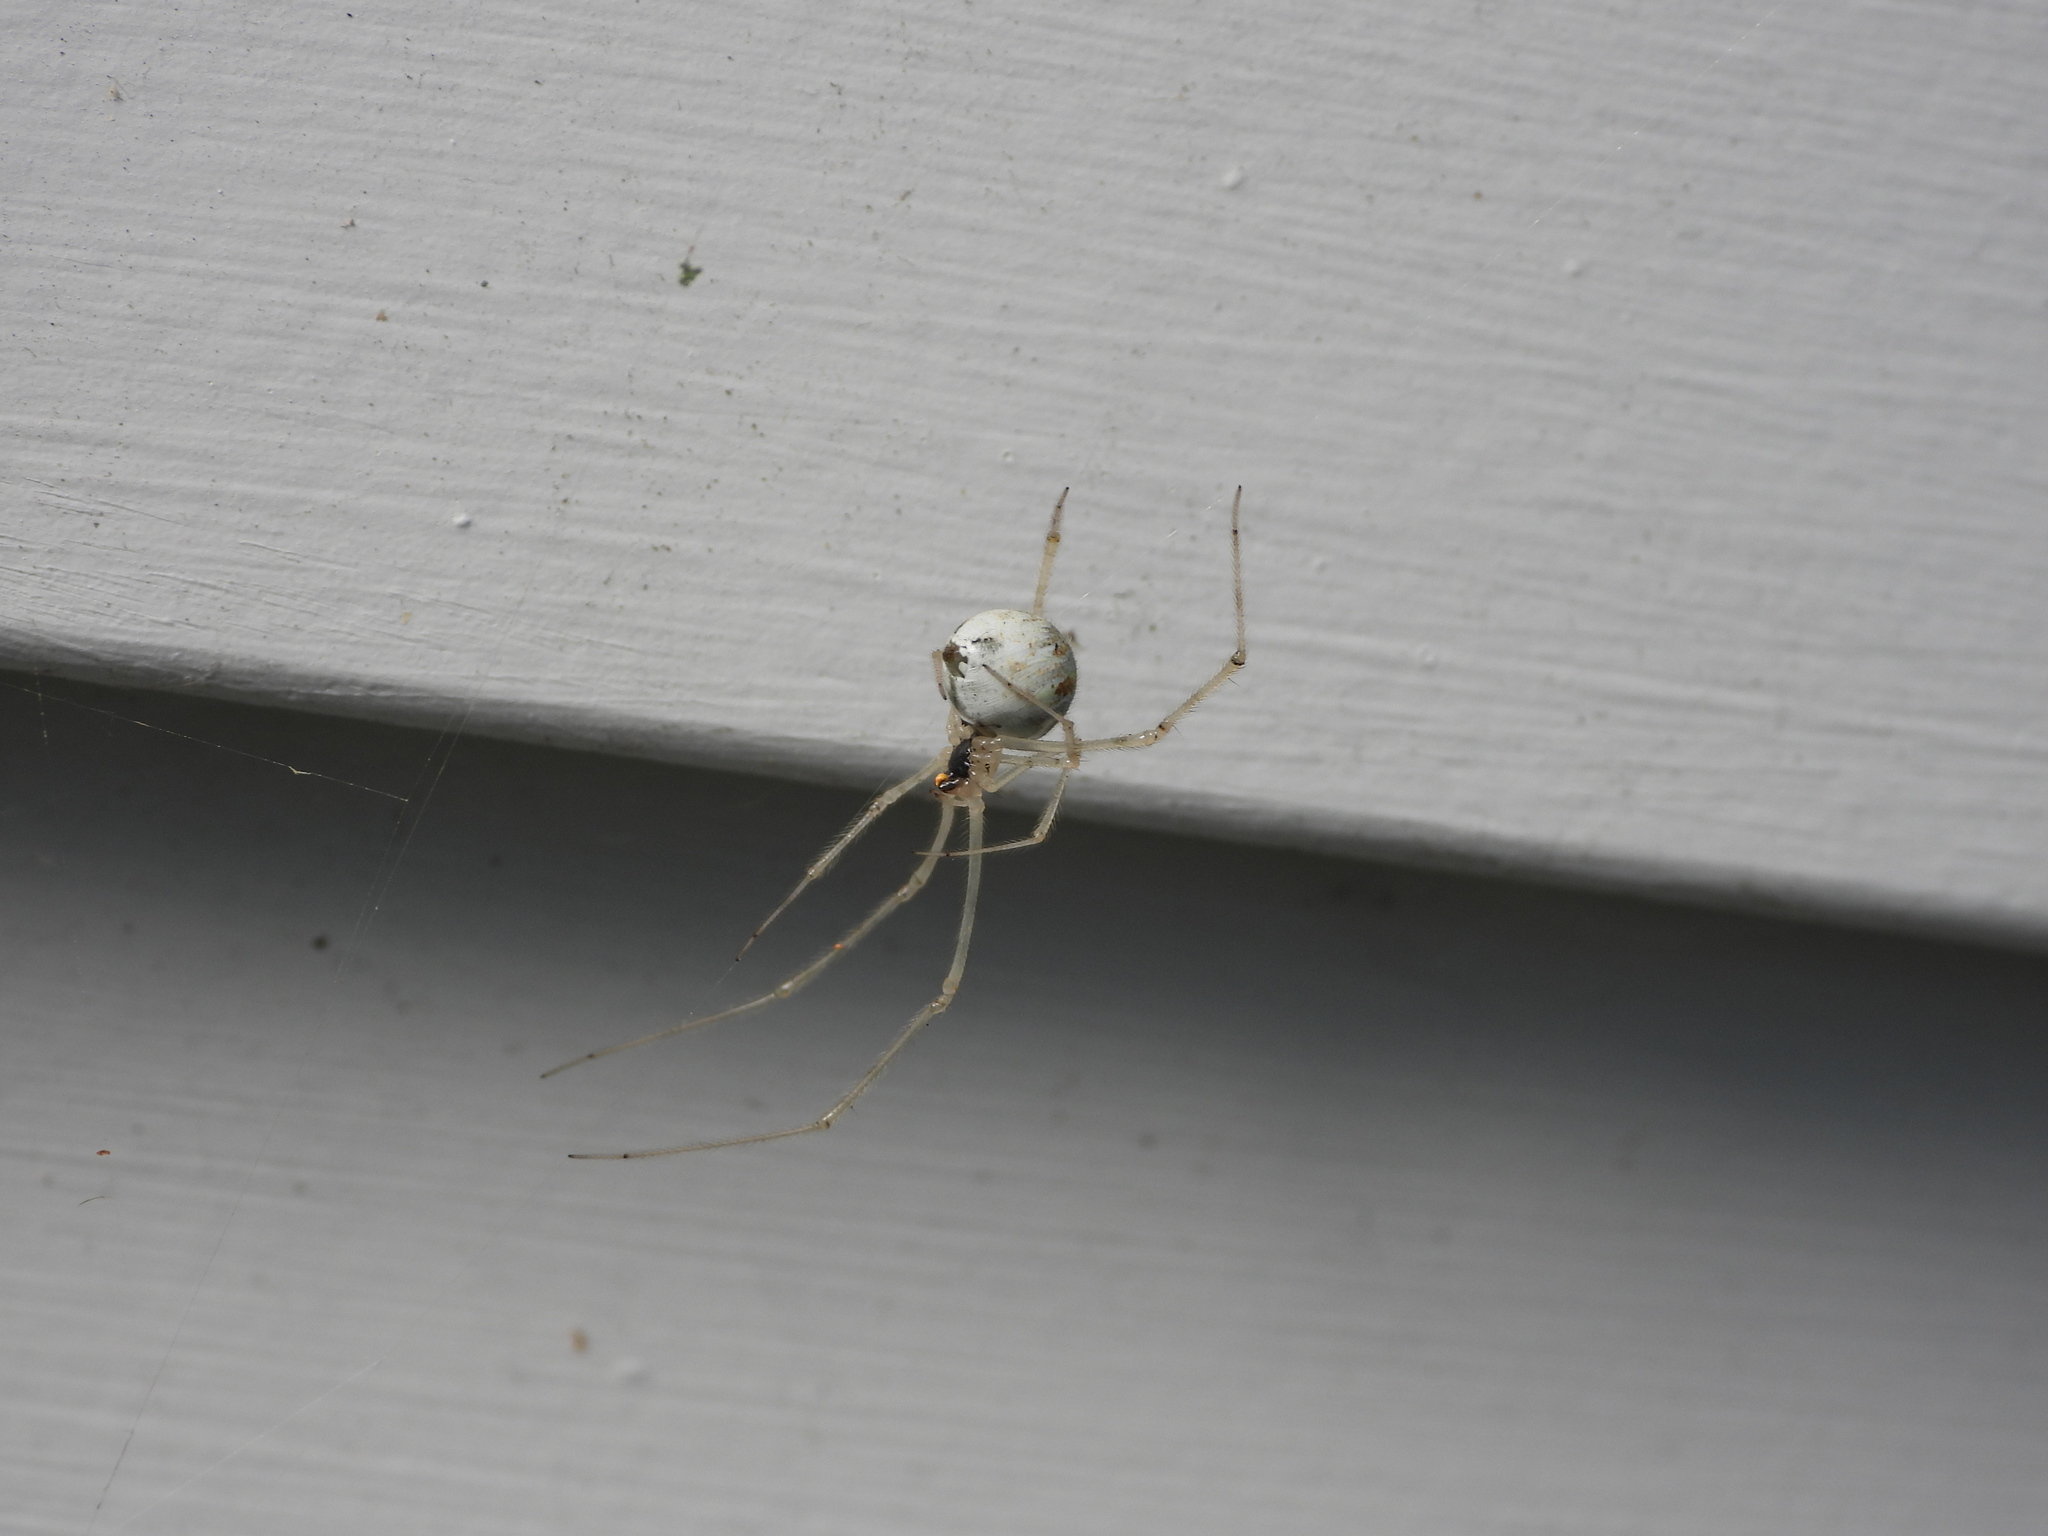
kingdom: Animalia
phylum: Arthropoda
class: Arachnida
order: Araneae
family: Theridiidae
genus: Cryptachaea
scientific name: Cryptachaea gigantipes
